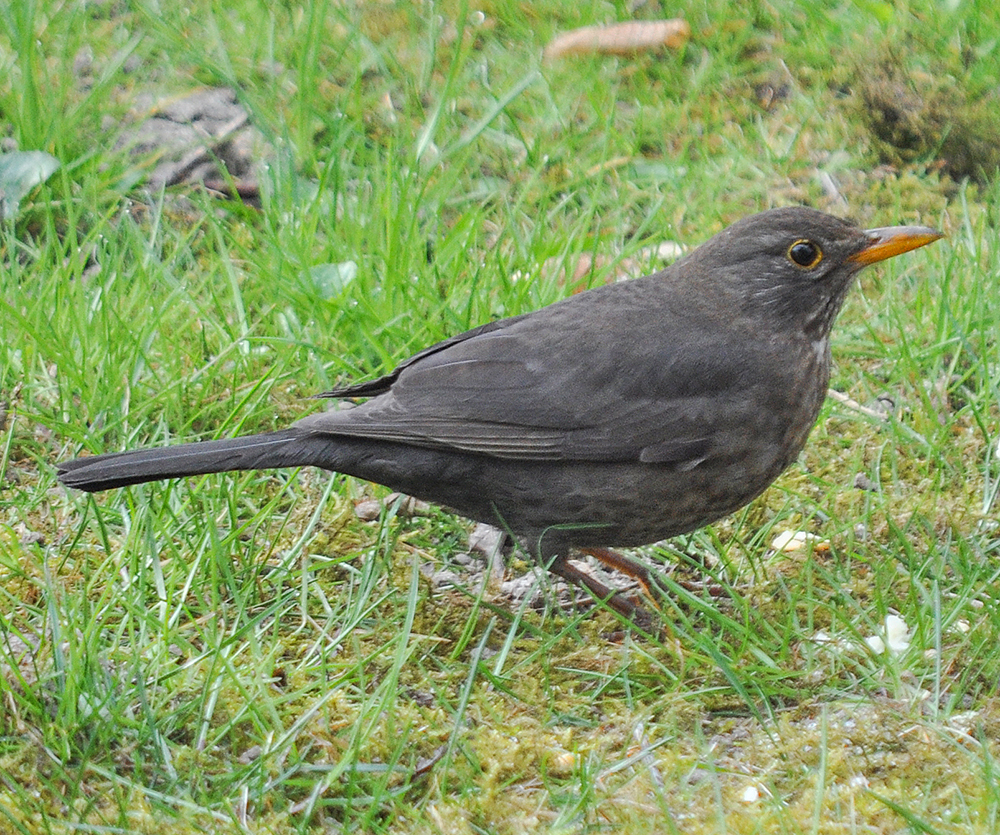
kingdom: Animalia
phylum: Chordata
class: Aves
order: Passeriformes
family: Turdidae
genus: Turdus
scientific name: Turdus merula
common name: Common blackbird
